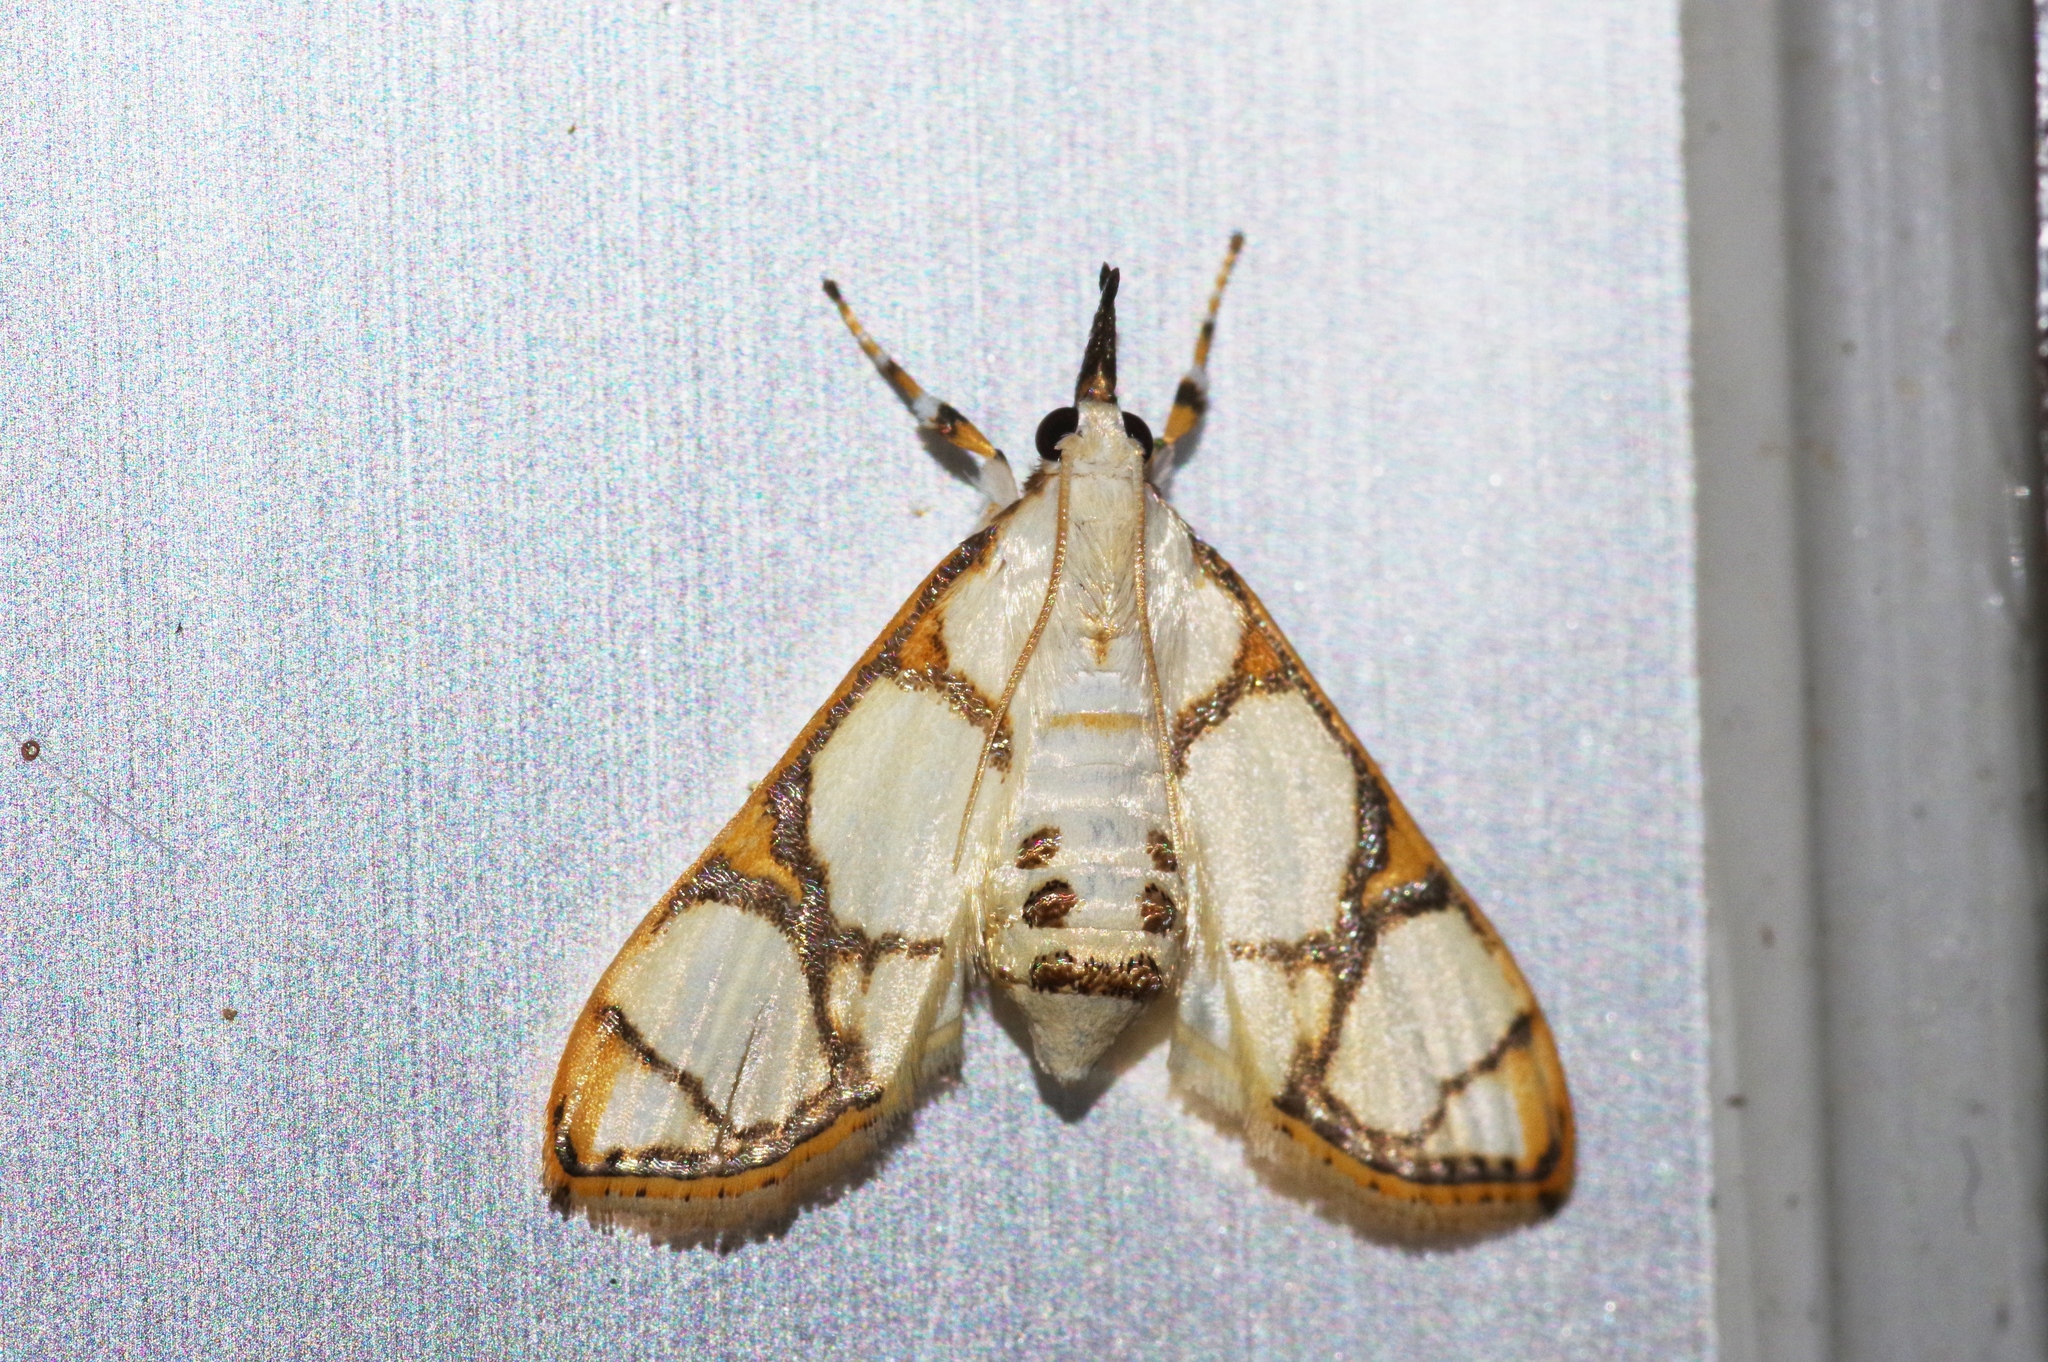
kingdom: Animalia
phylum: Arthropoda
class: Insecta
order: Lepidoptera
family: Crambidae
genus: Cirrhochrista
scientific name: Cirrhochrista kosemponialis
